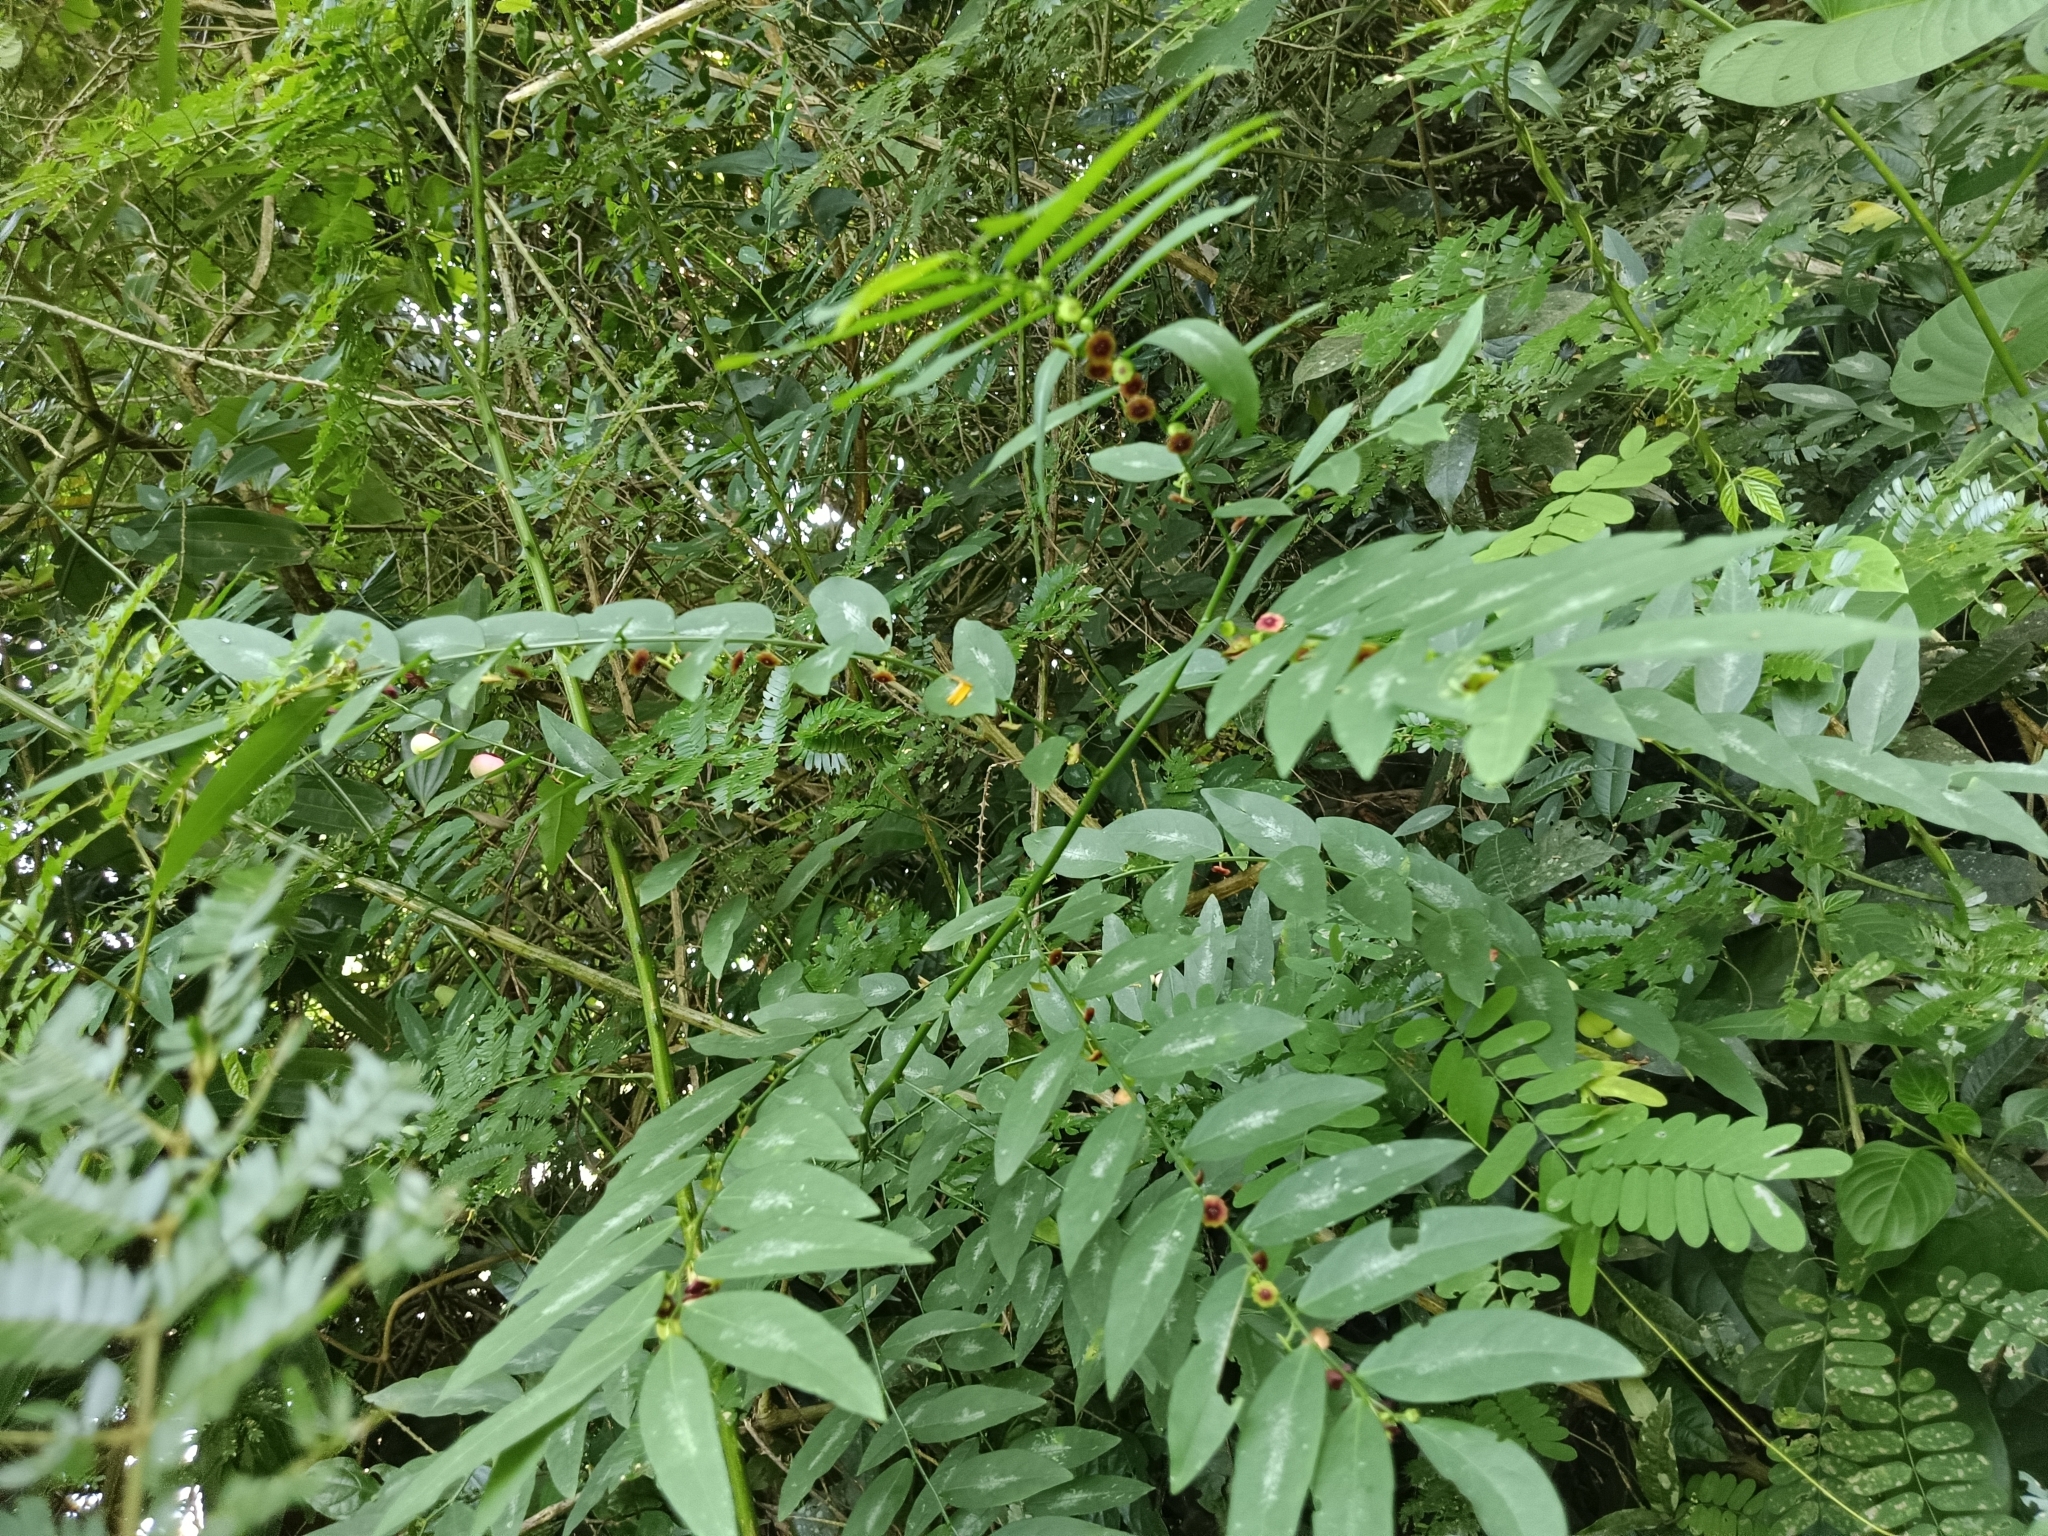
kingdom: Plantae
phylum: Tracheophyta
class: Magnoliopsida
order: Malpighiales
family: Phyllanthaceae
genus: Breynia
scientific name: Breynia androgyna
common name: Star gooseberry
